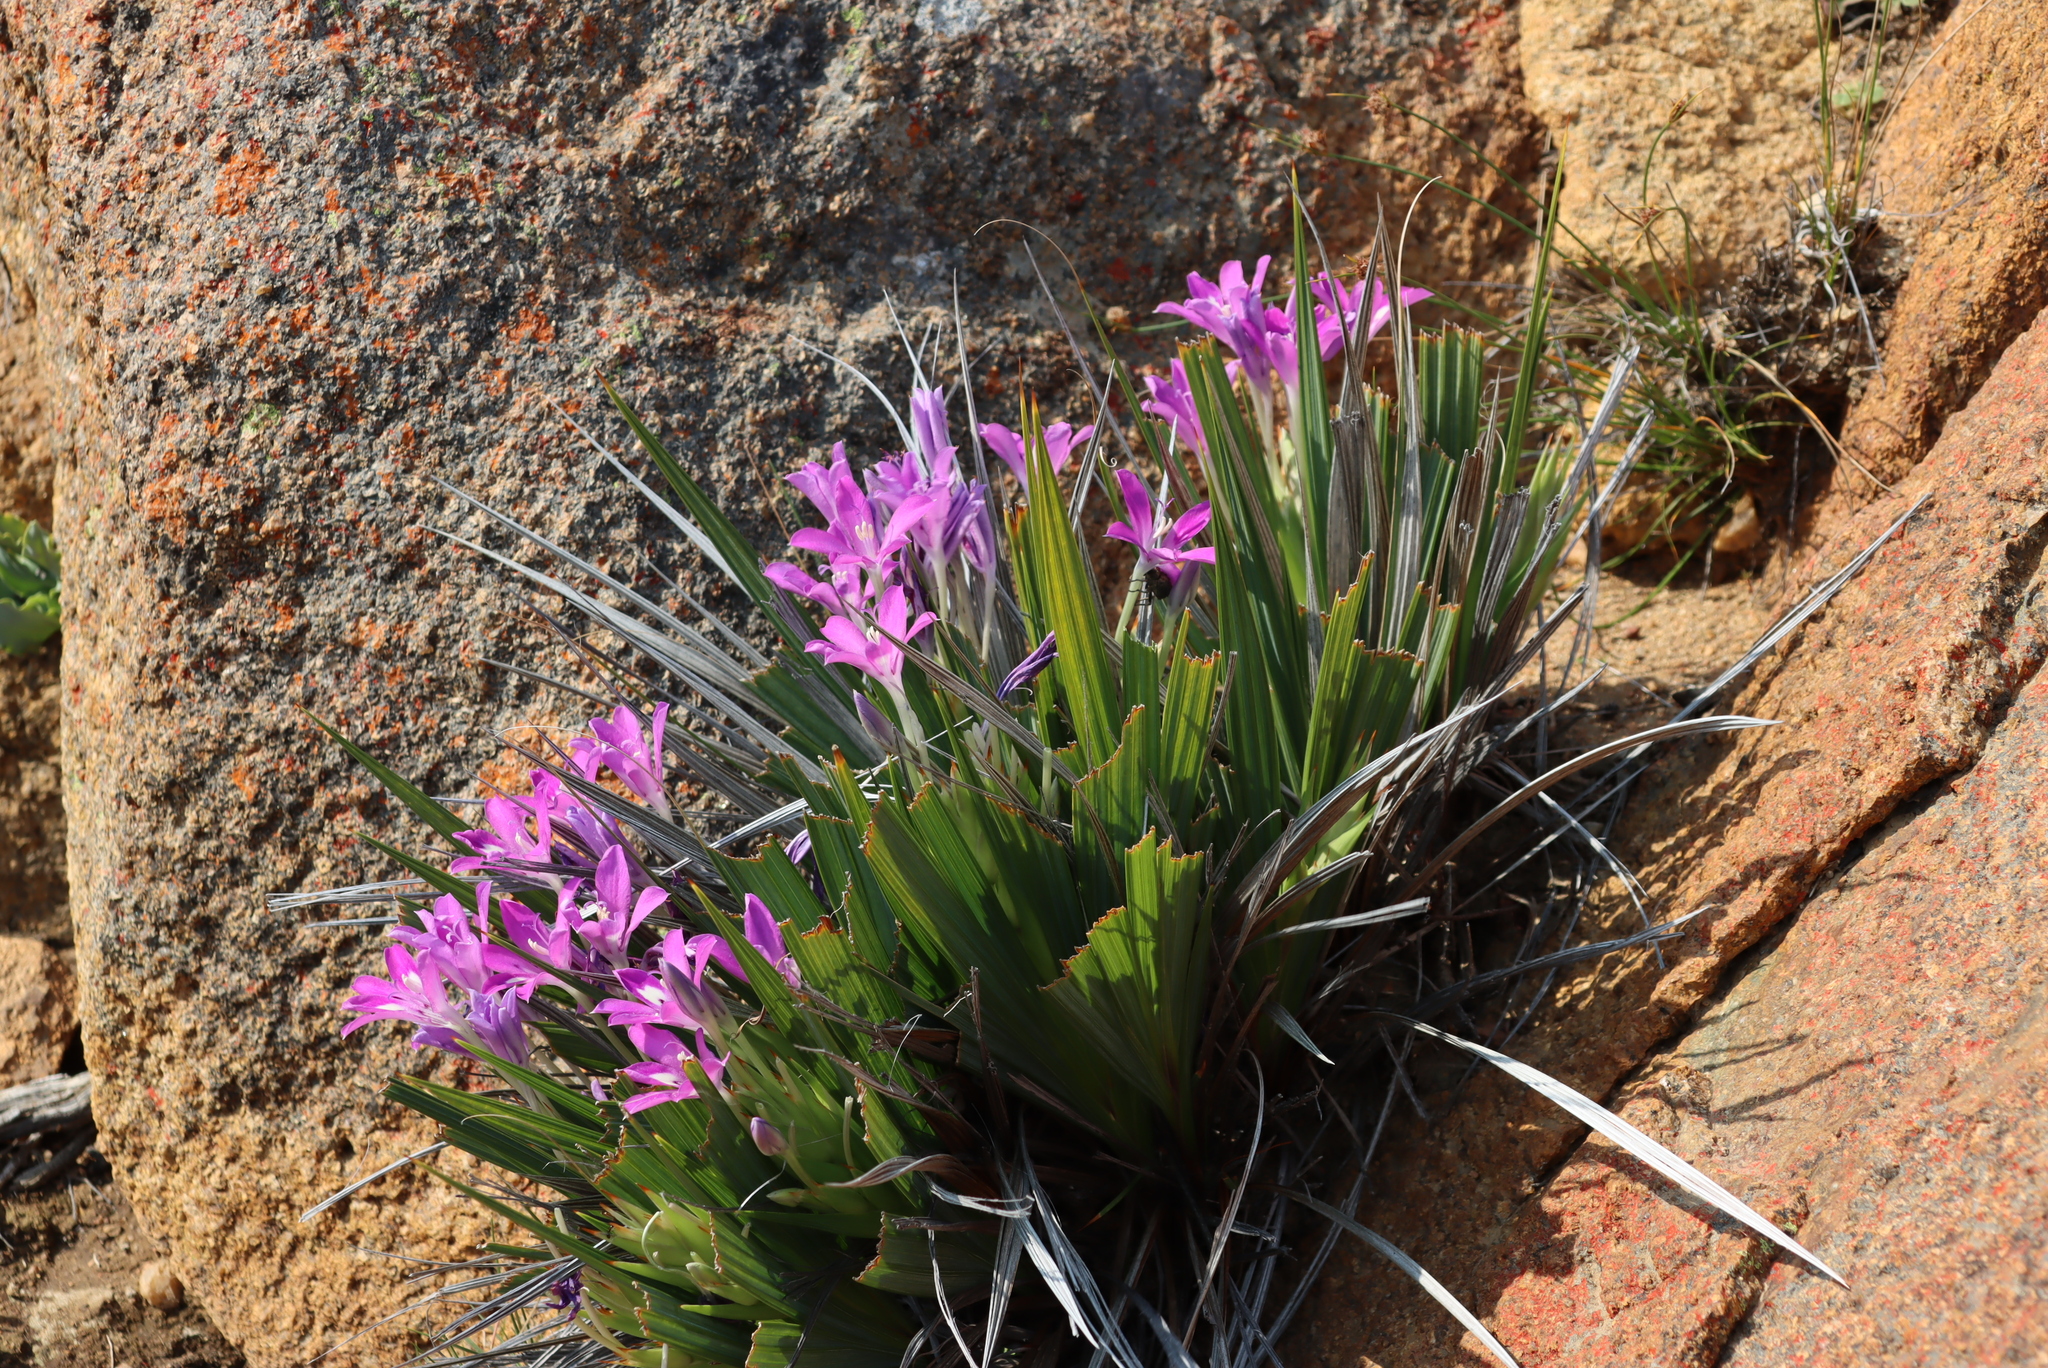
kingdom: Plantae
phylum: Tracheophyta
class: Liliopsida
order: Asparagales
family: Iridaceae
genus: Babiana
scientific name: Babiana dregei
